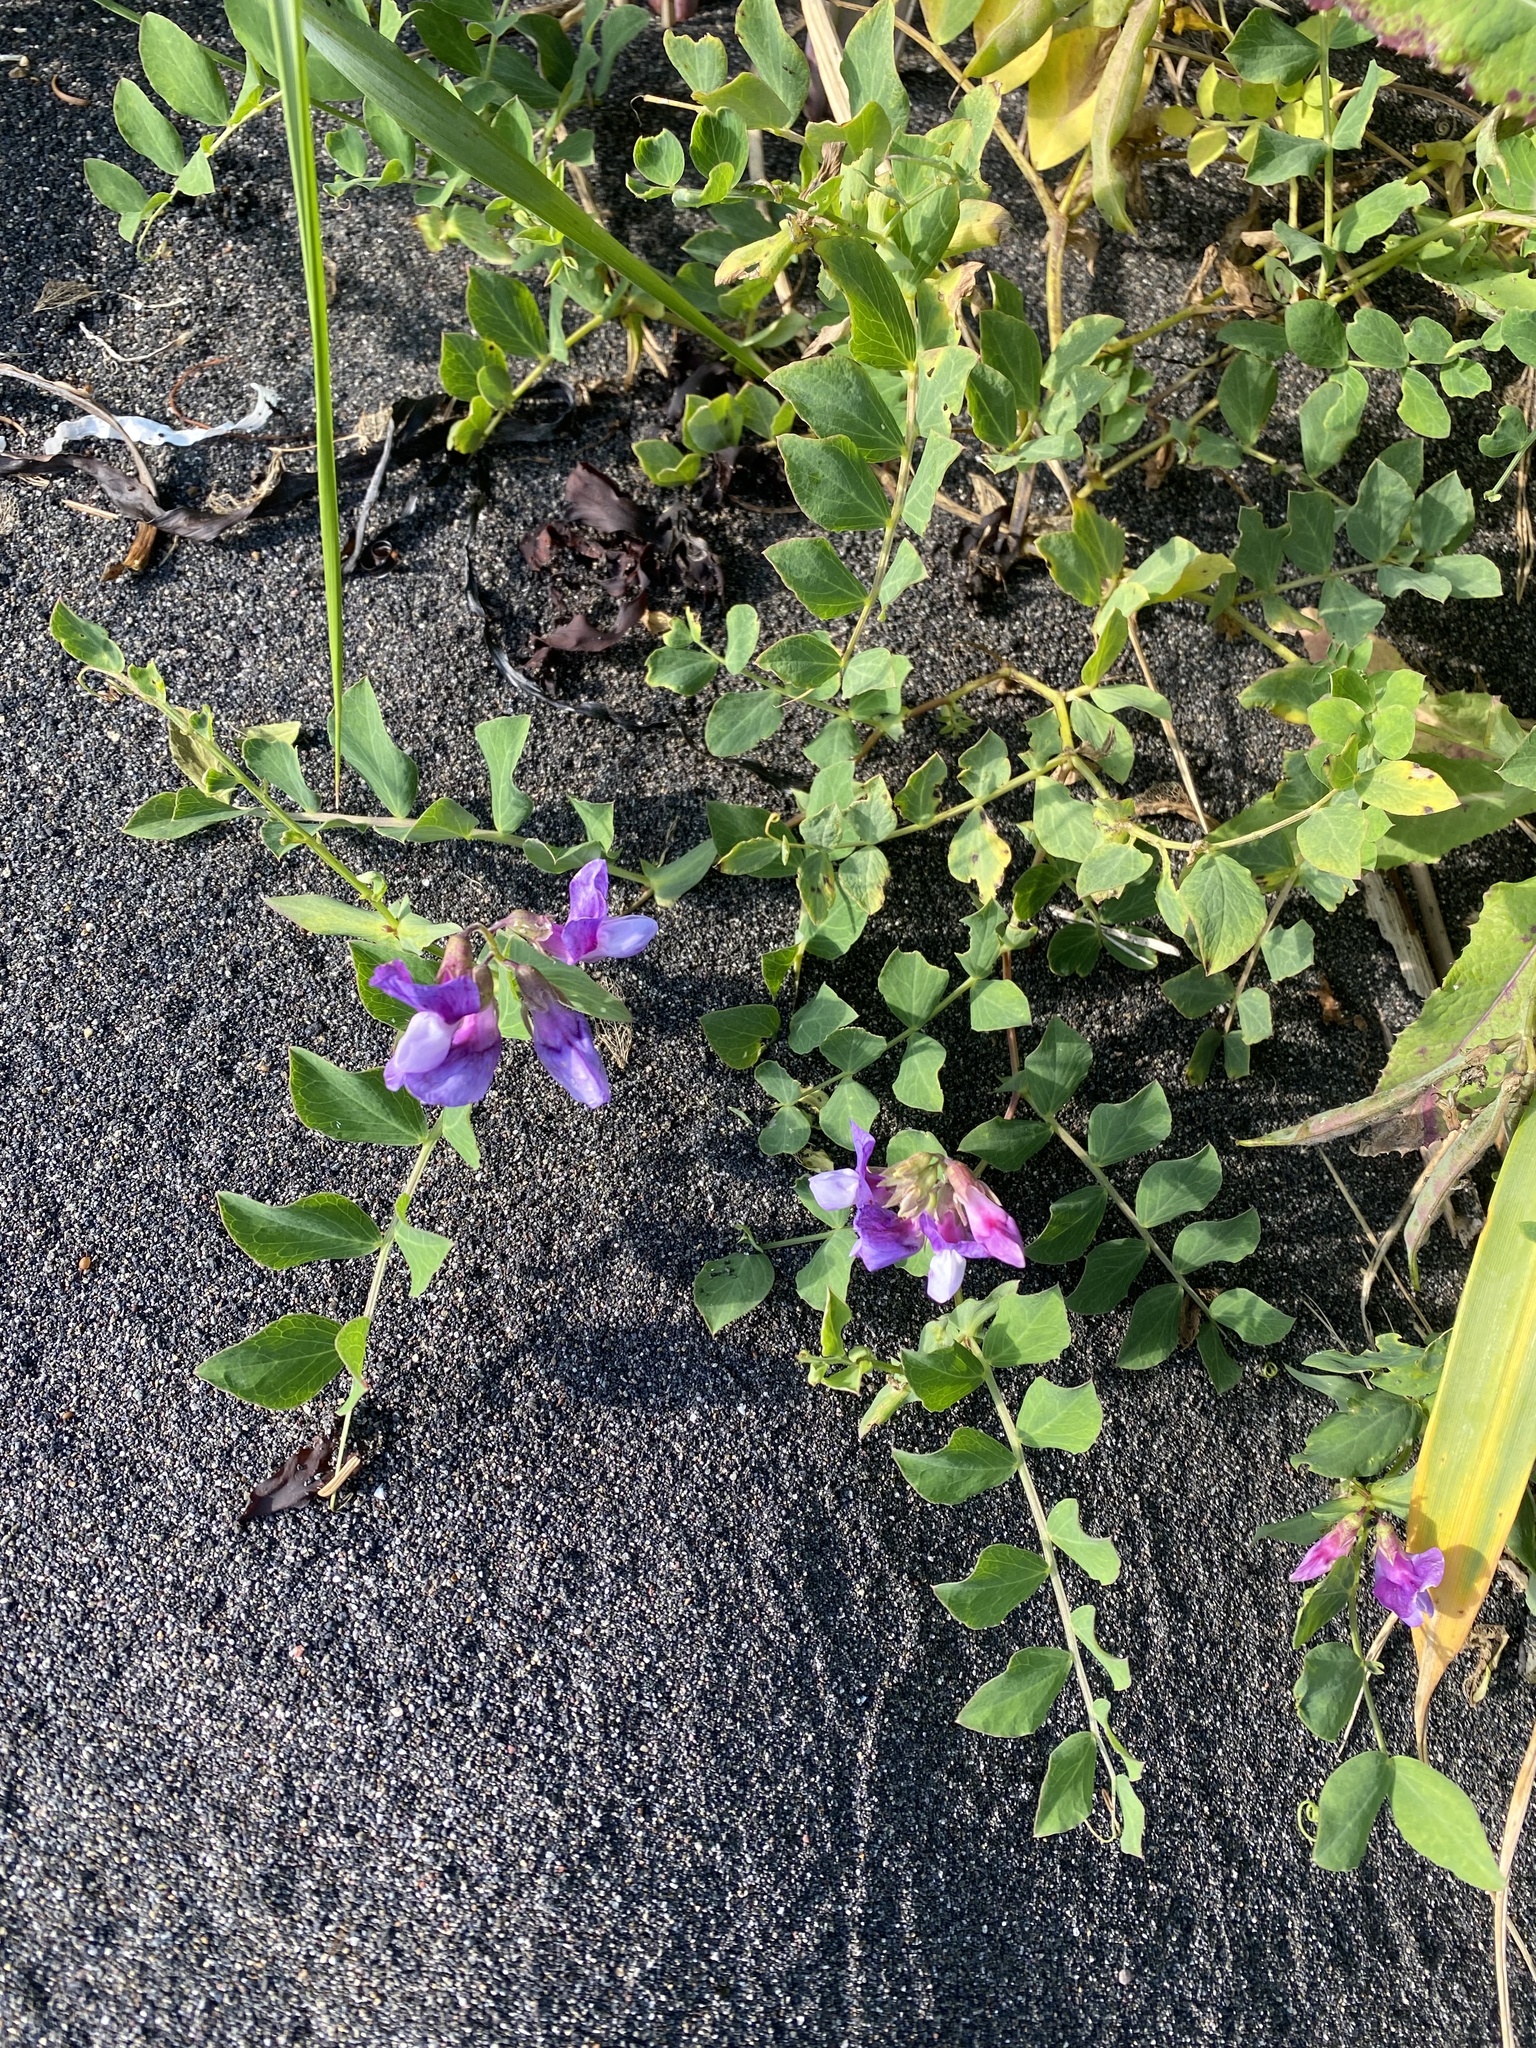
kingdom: Plantae
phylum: Tracheophyta
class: Magnoliopsida
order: Fabales
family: Fabaceae
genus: Lathyrus
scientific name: Lathyrus japonicus
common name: Sea pea
